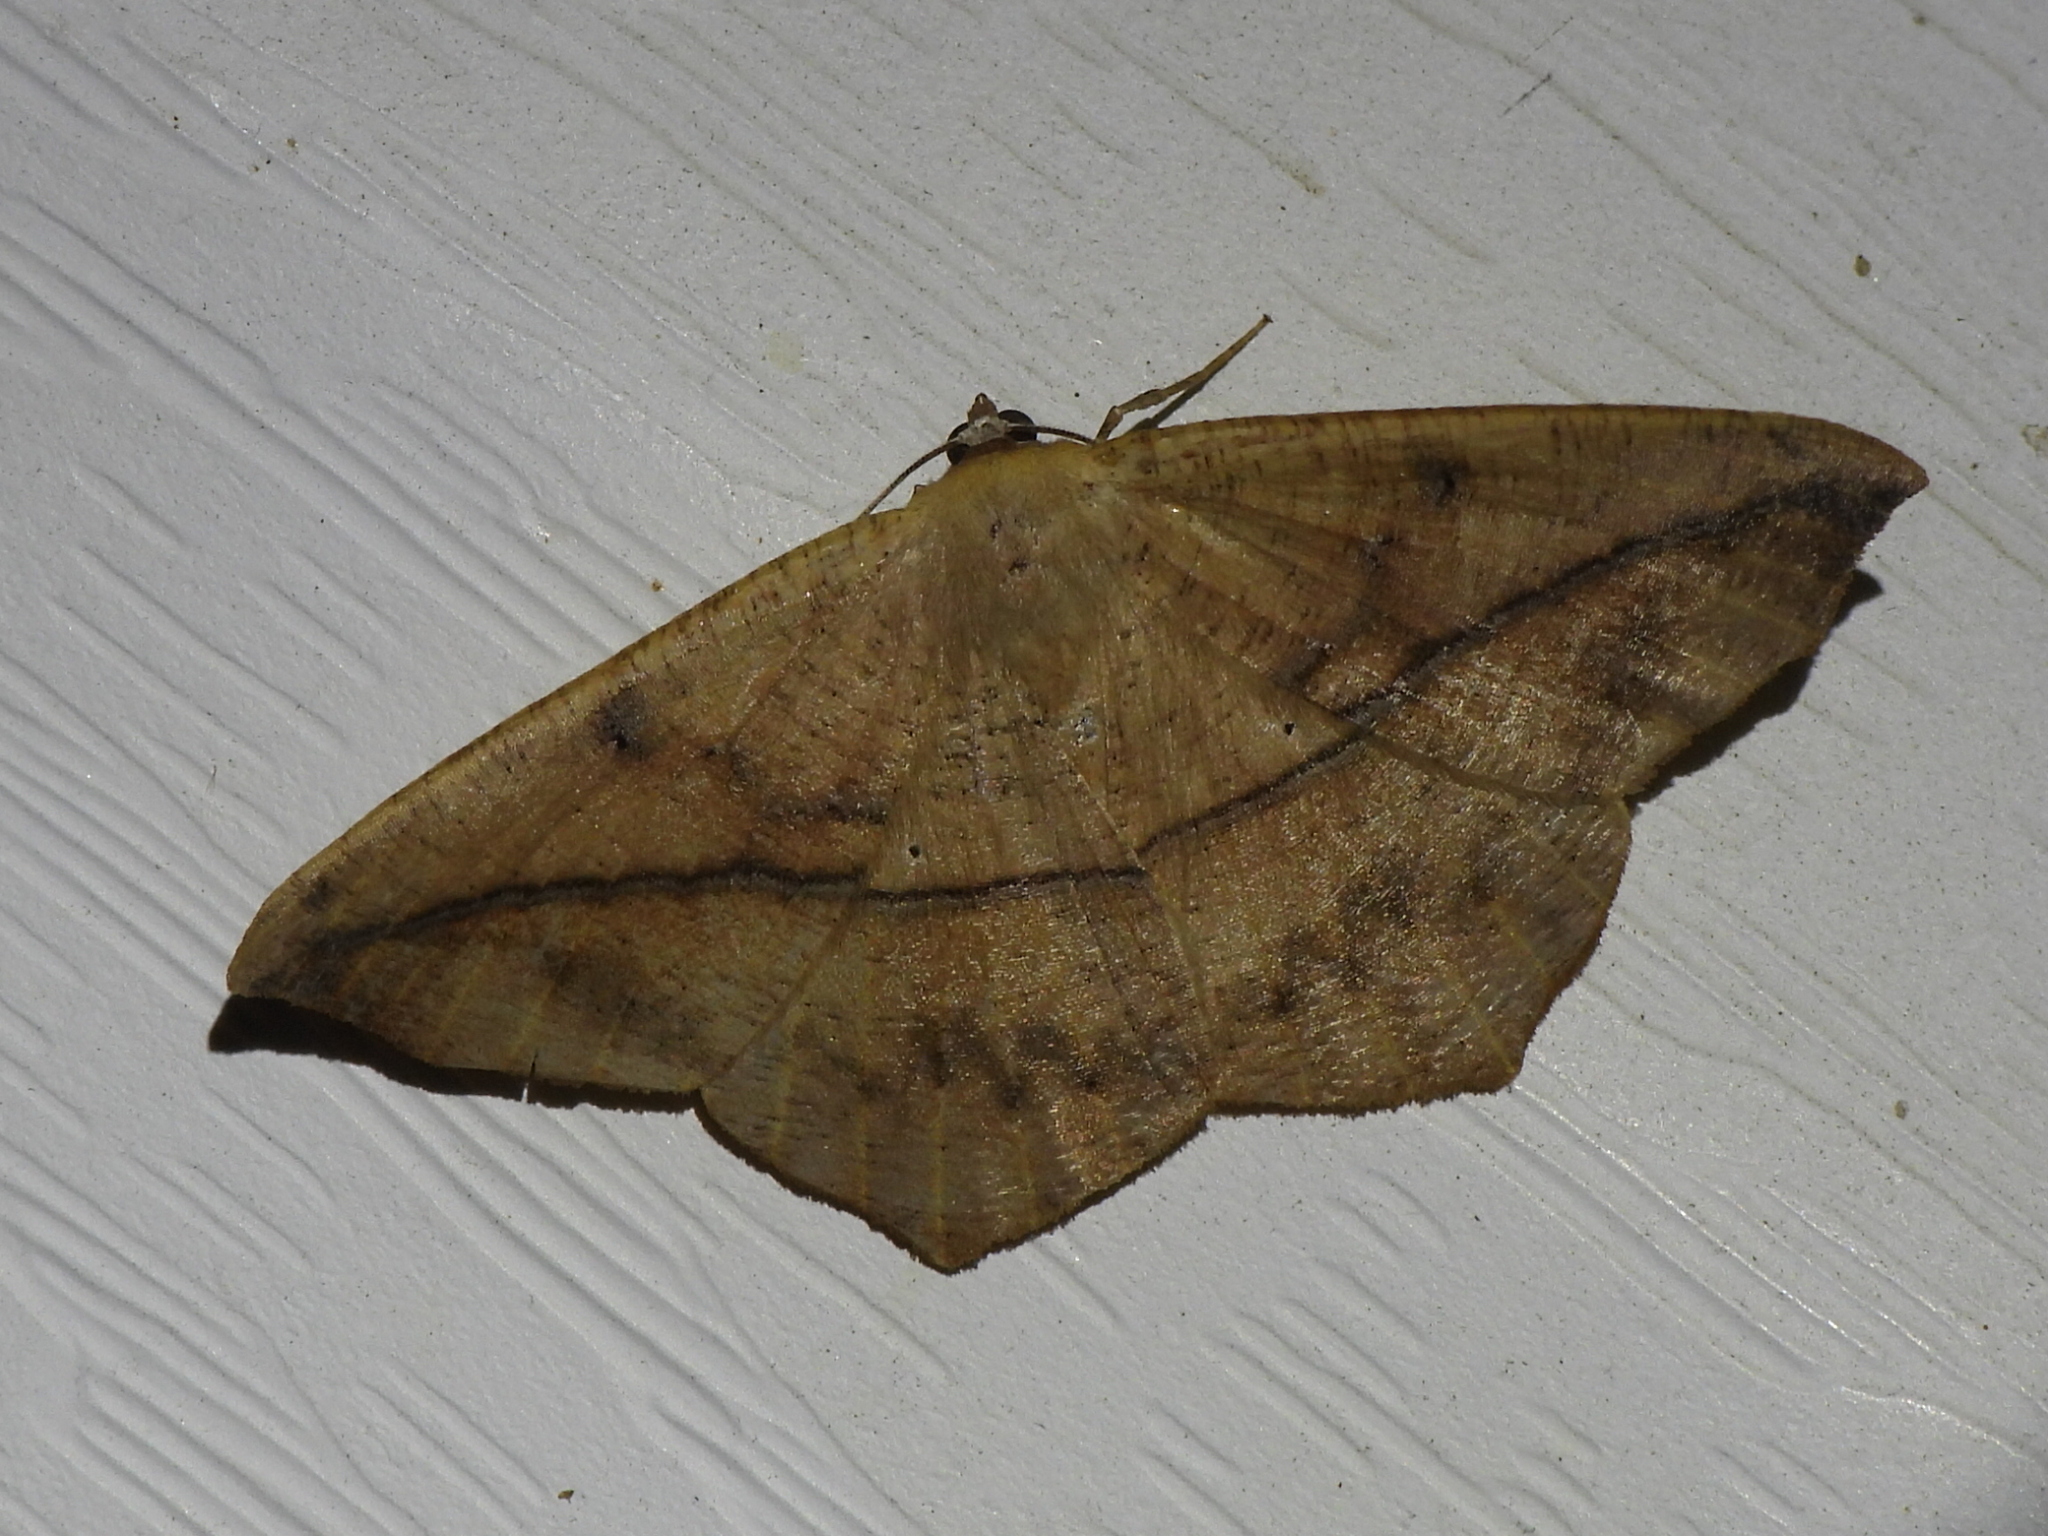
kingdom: Animalia
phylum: Arthropoda
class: Insecta
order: Lepidoptera
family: Geometridae
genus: Prochoerodes
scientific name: Prochoerodes lineola
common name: Large maple spanworm
